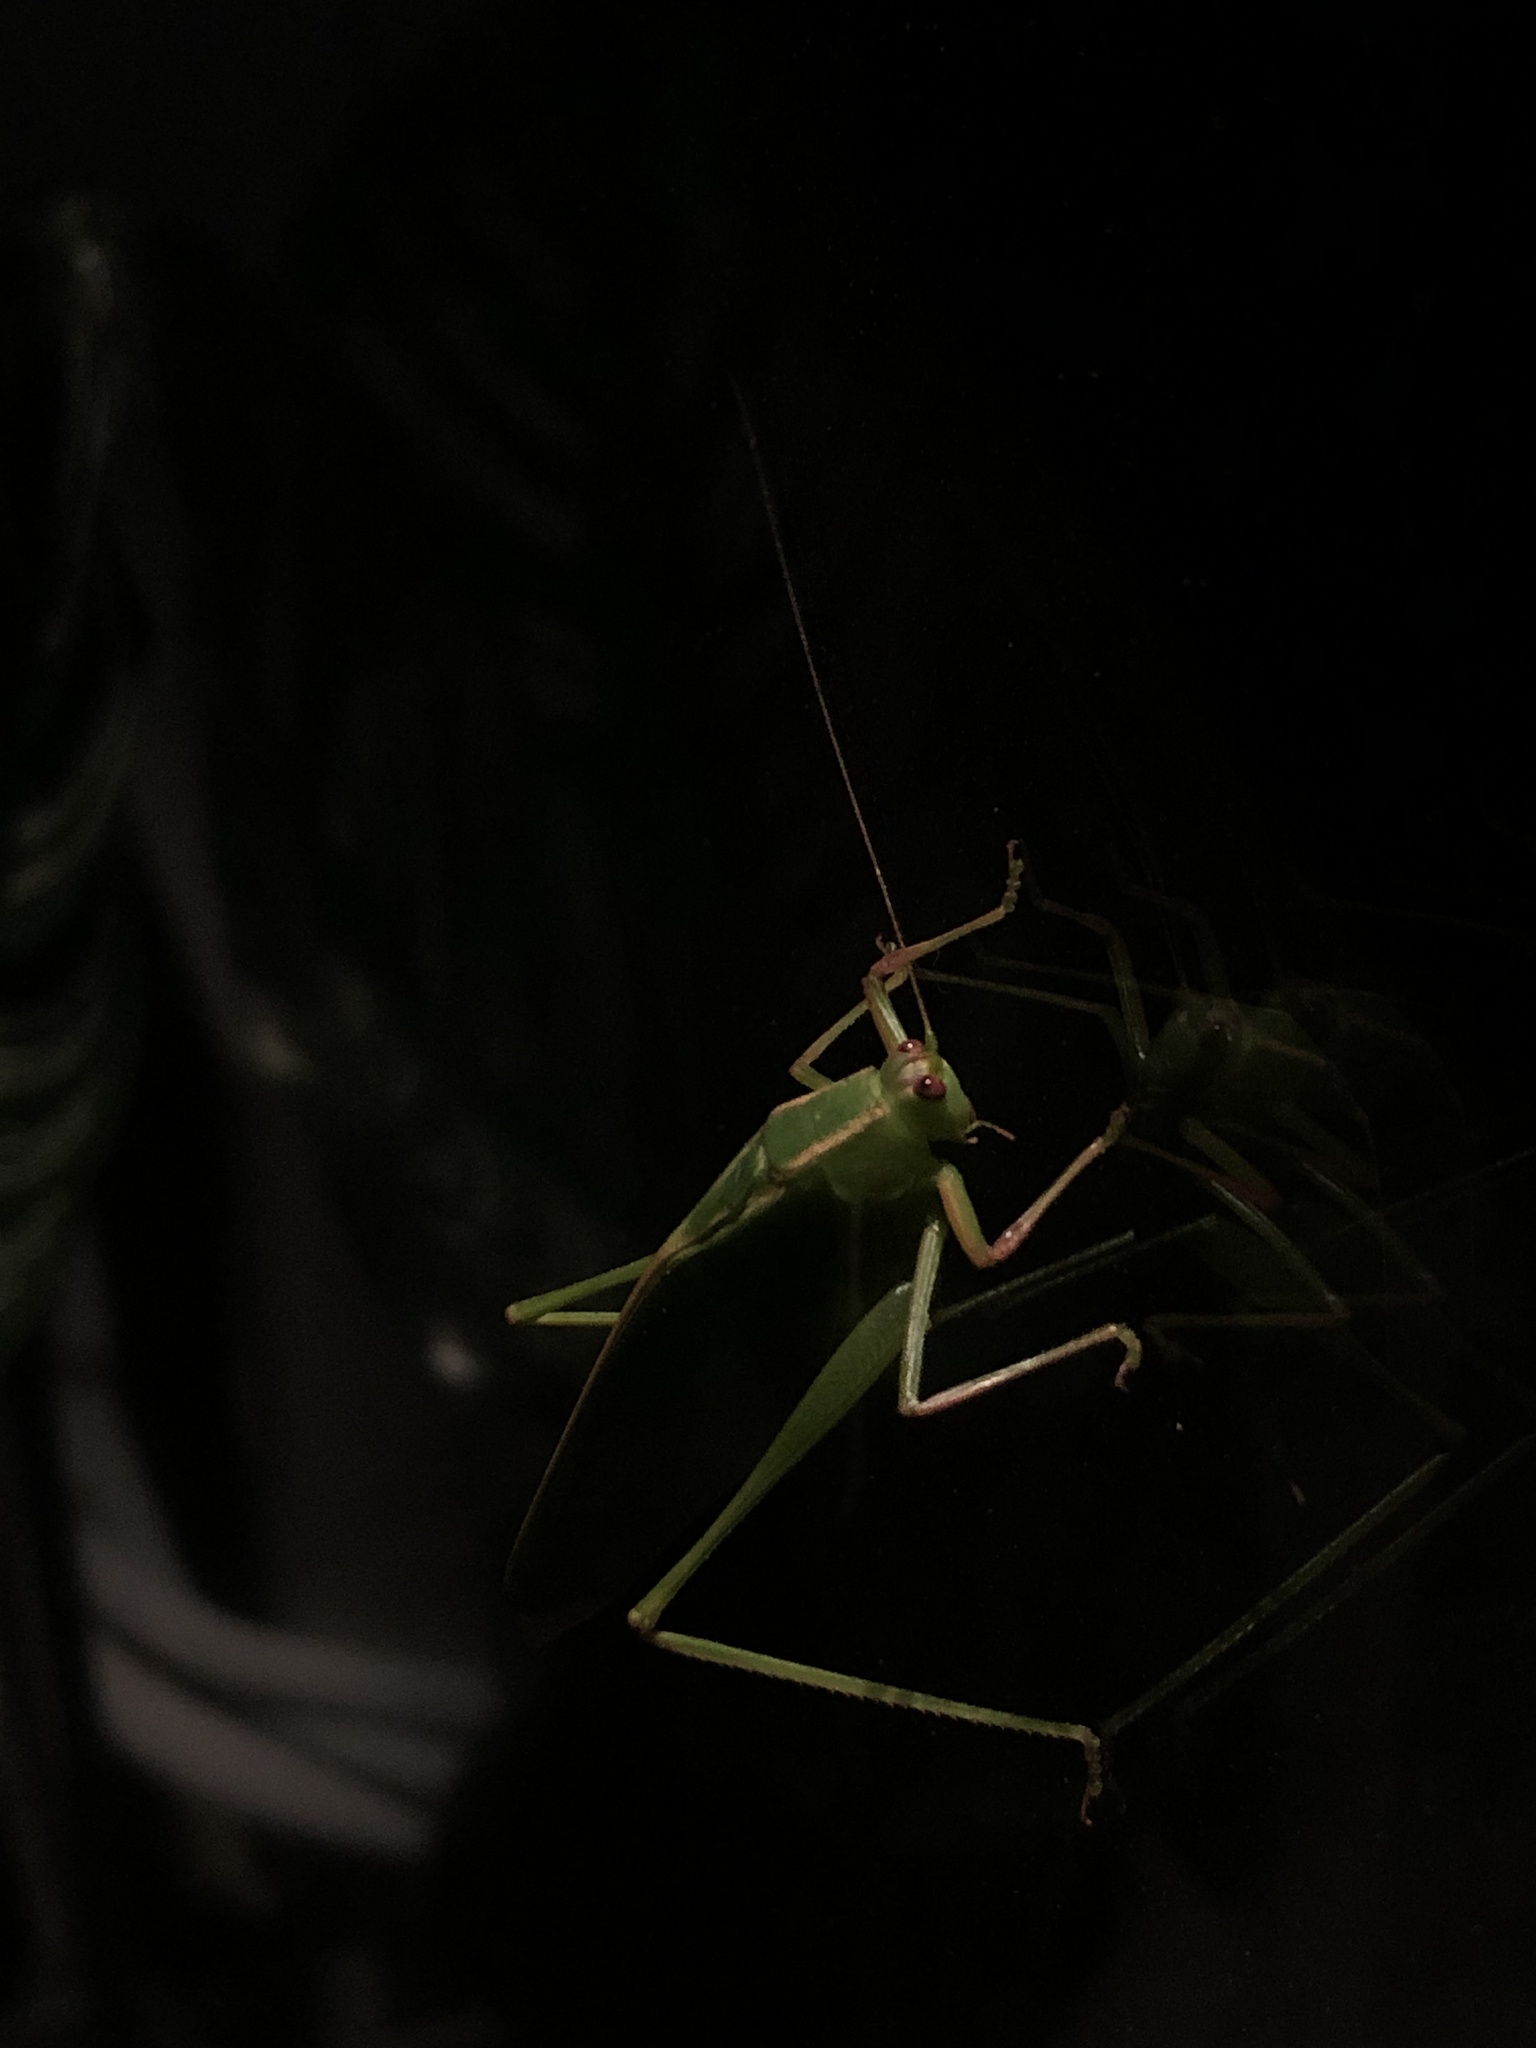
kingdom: Animalia
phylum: Arthropoda
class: Insecta
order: Orthoptera
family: Tettigoniidae
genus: Caedicia
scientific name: Caedicia simplex
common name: Common garden katydid
